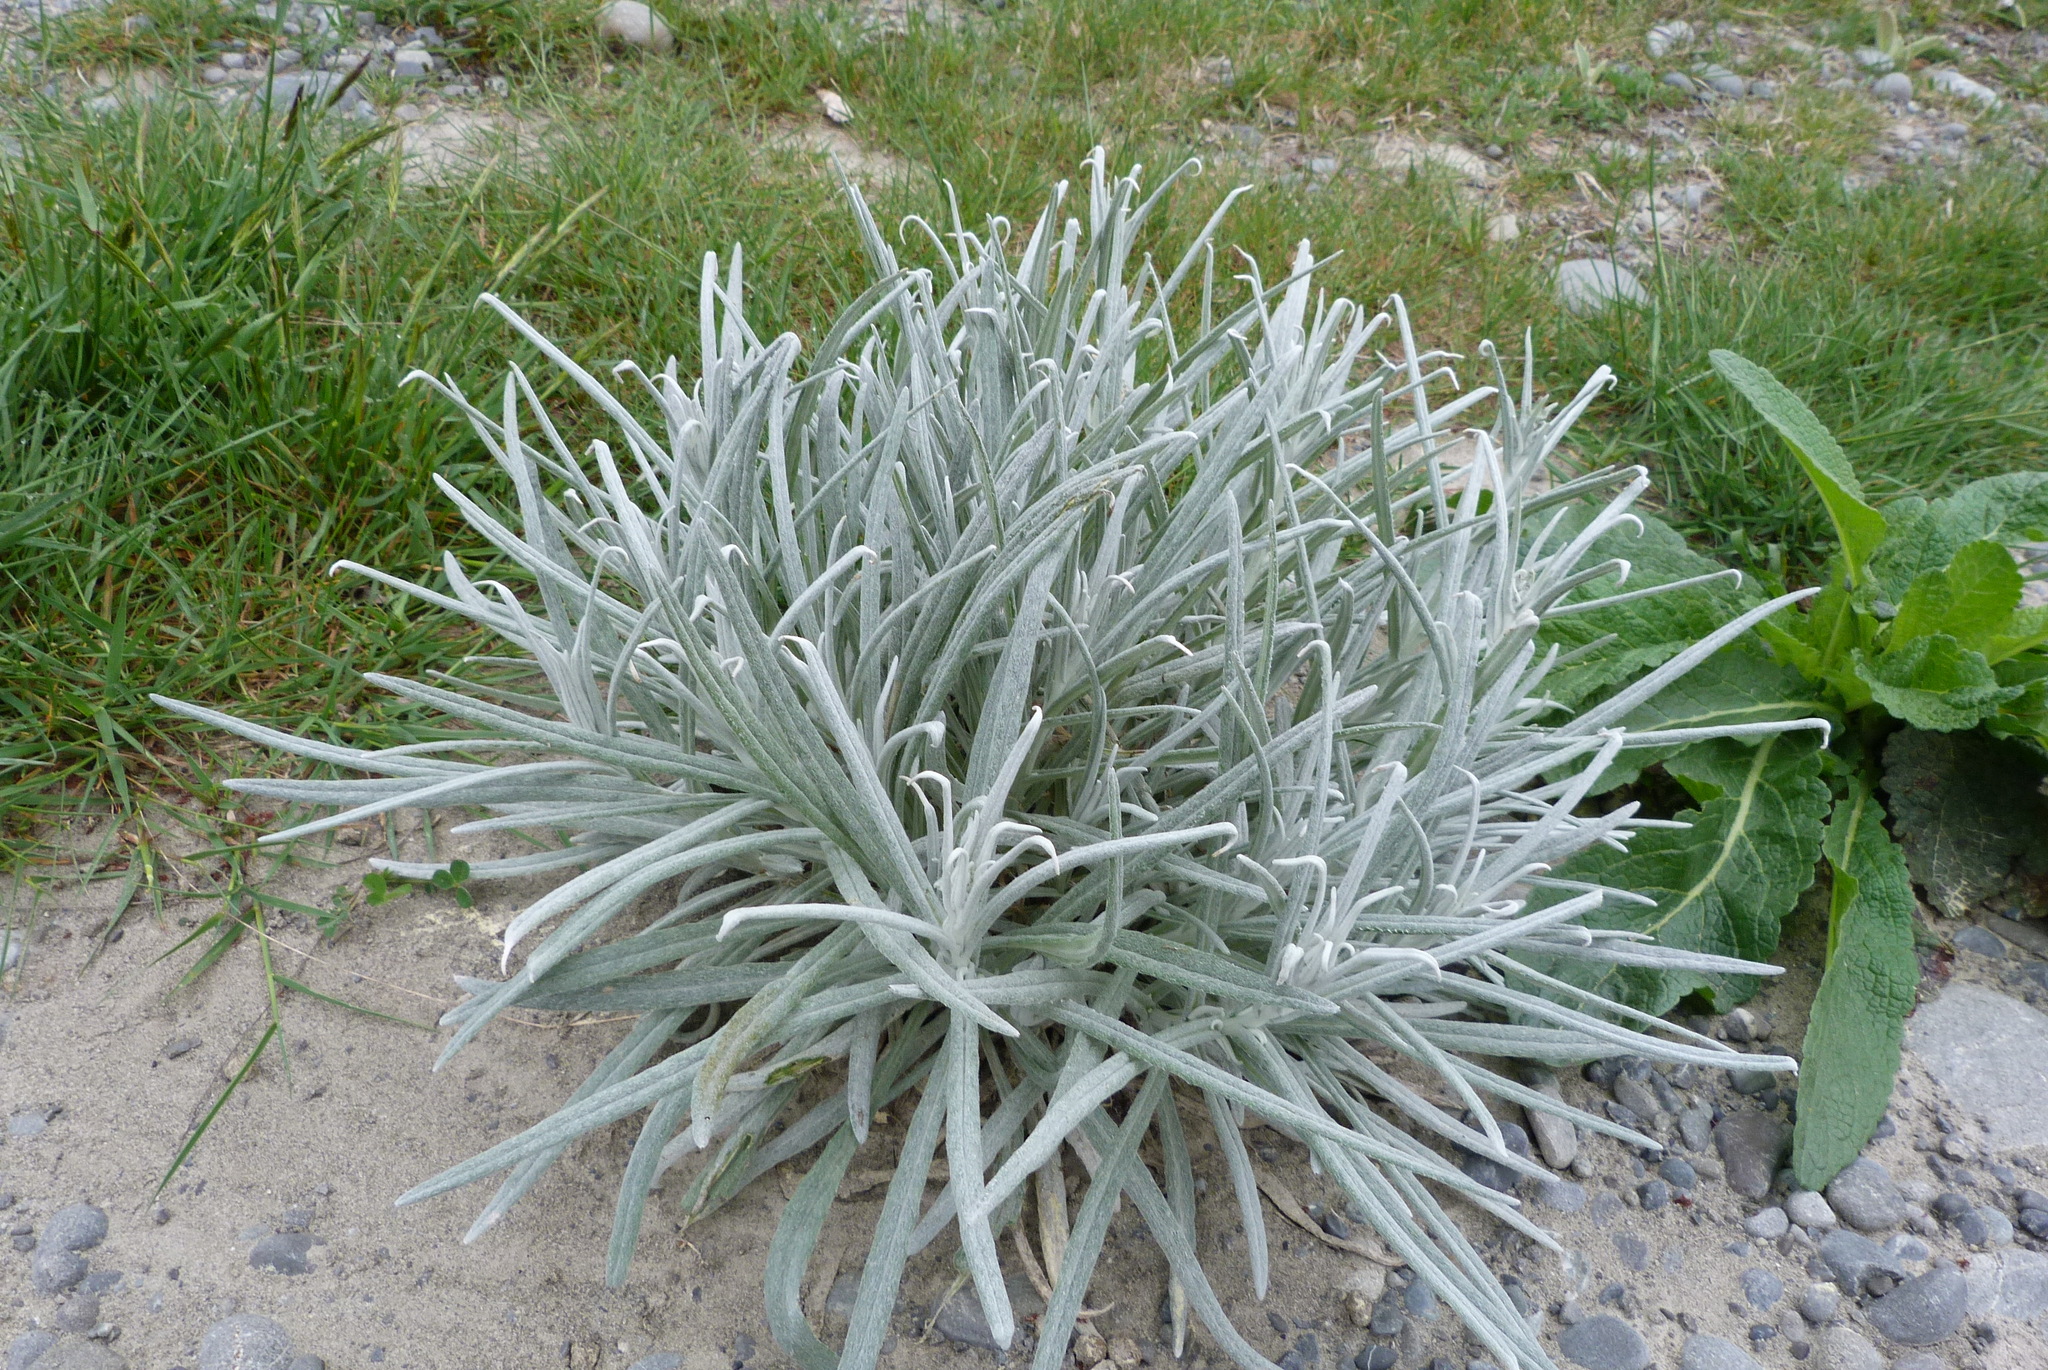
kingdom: Plantae
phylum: Tracheophyta
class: Magnoliopsida
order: Asterales
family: Asteraceae
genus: Senecio
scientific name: Senecio quadridentatus
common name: Cotton fireweed
